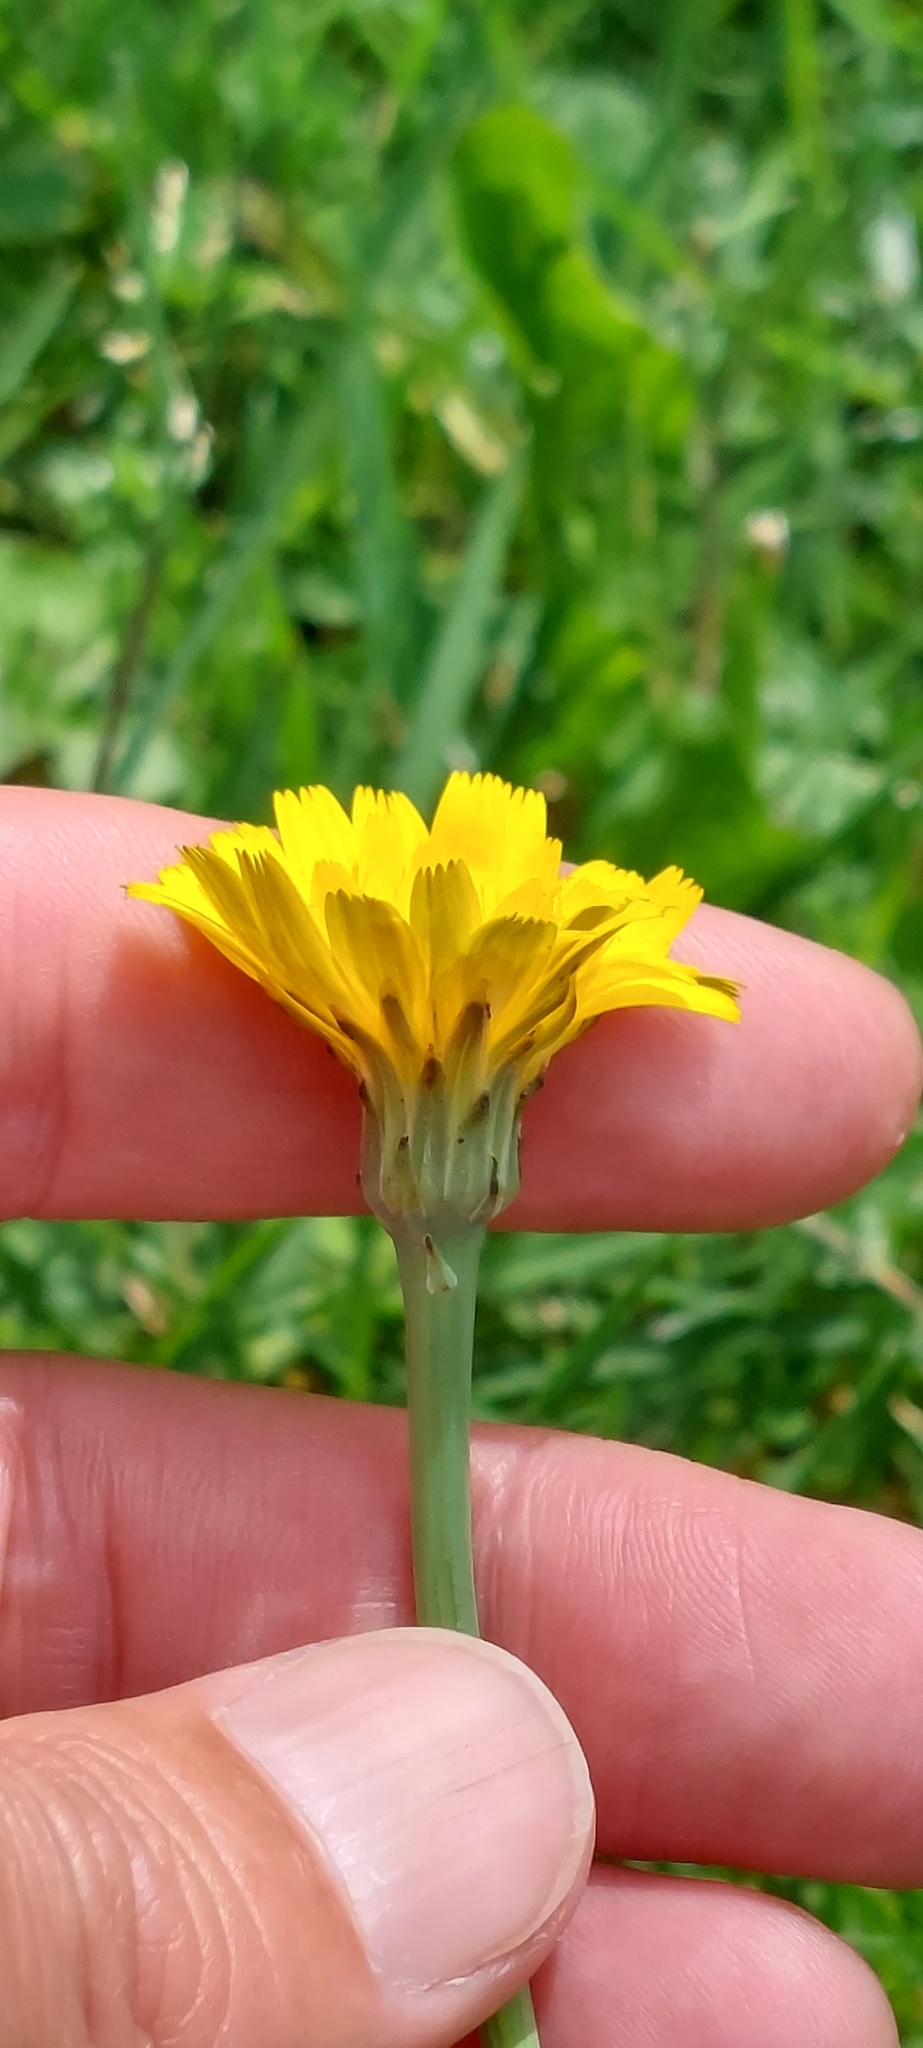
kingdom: Plantae
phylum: Tracheophyta
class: Magnoliopsida
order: Asterales
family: Asteraceae
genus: Hypochaeris
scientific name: Hypochaeris radicata
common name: Flatweed
